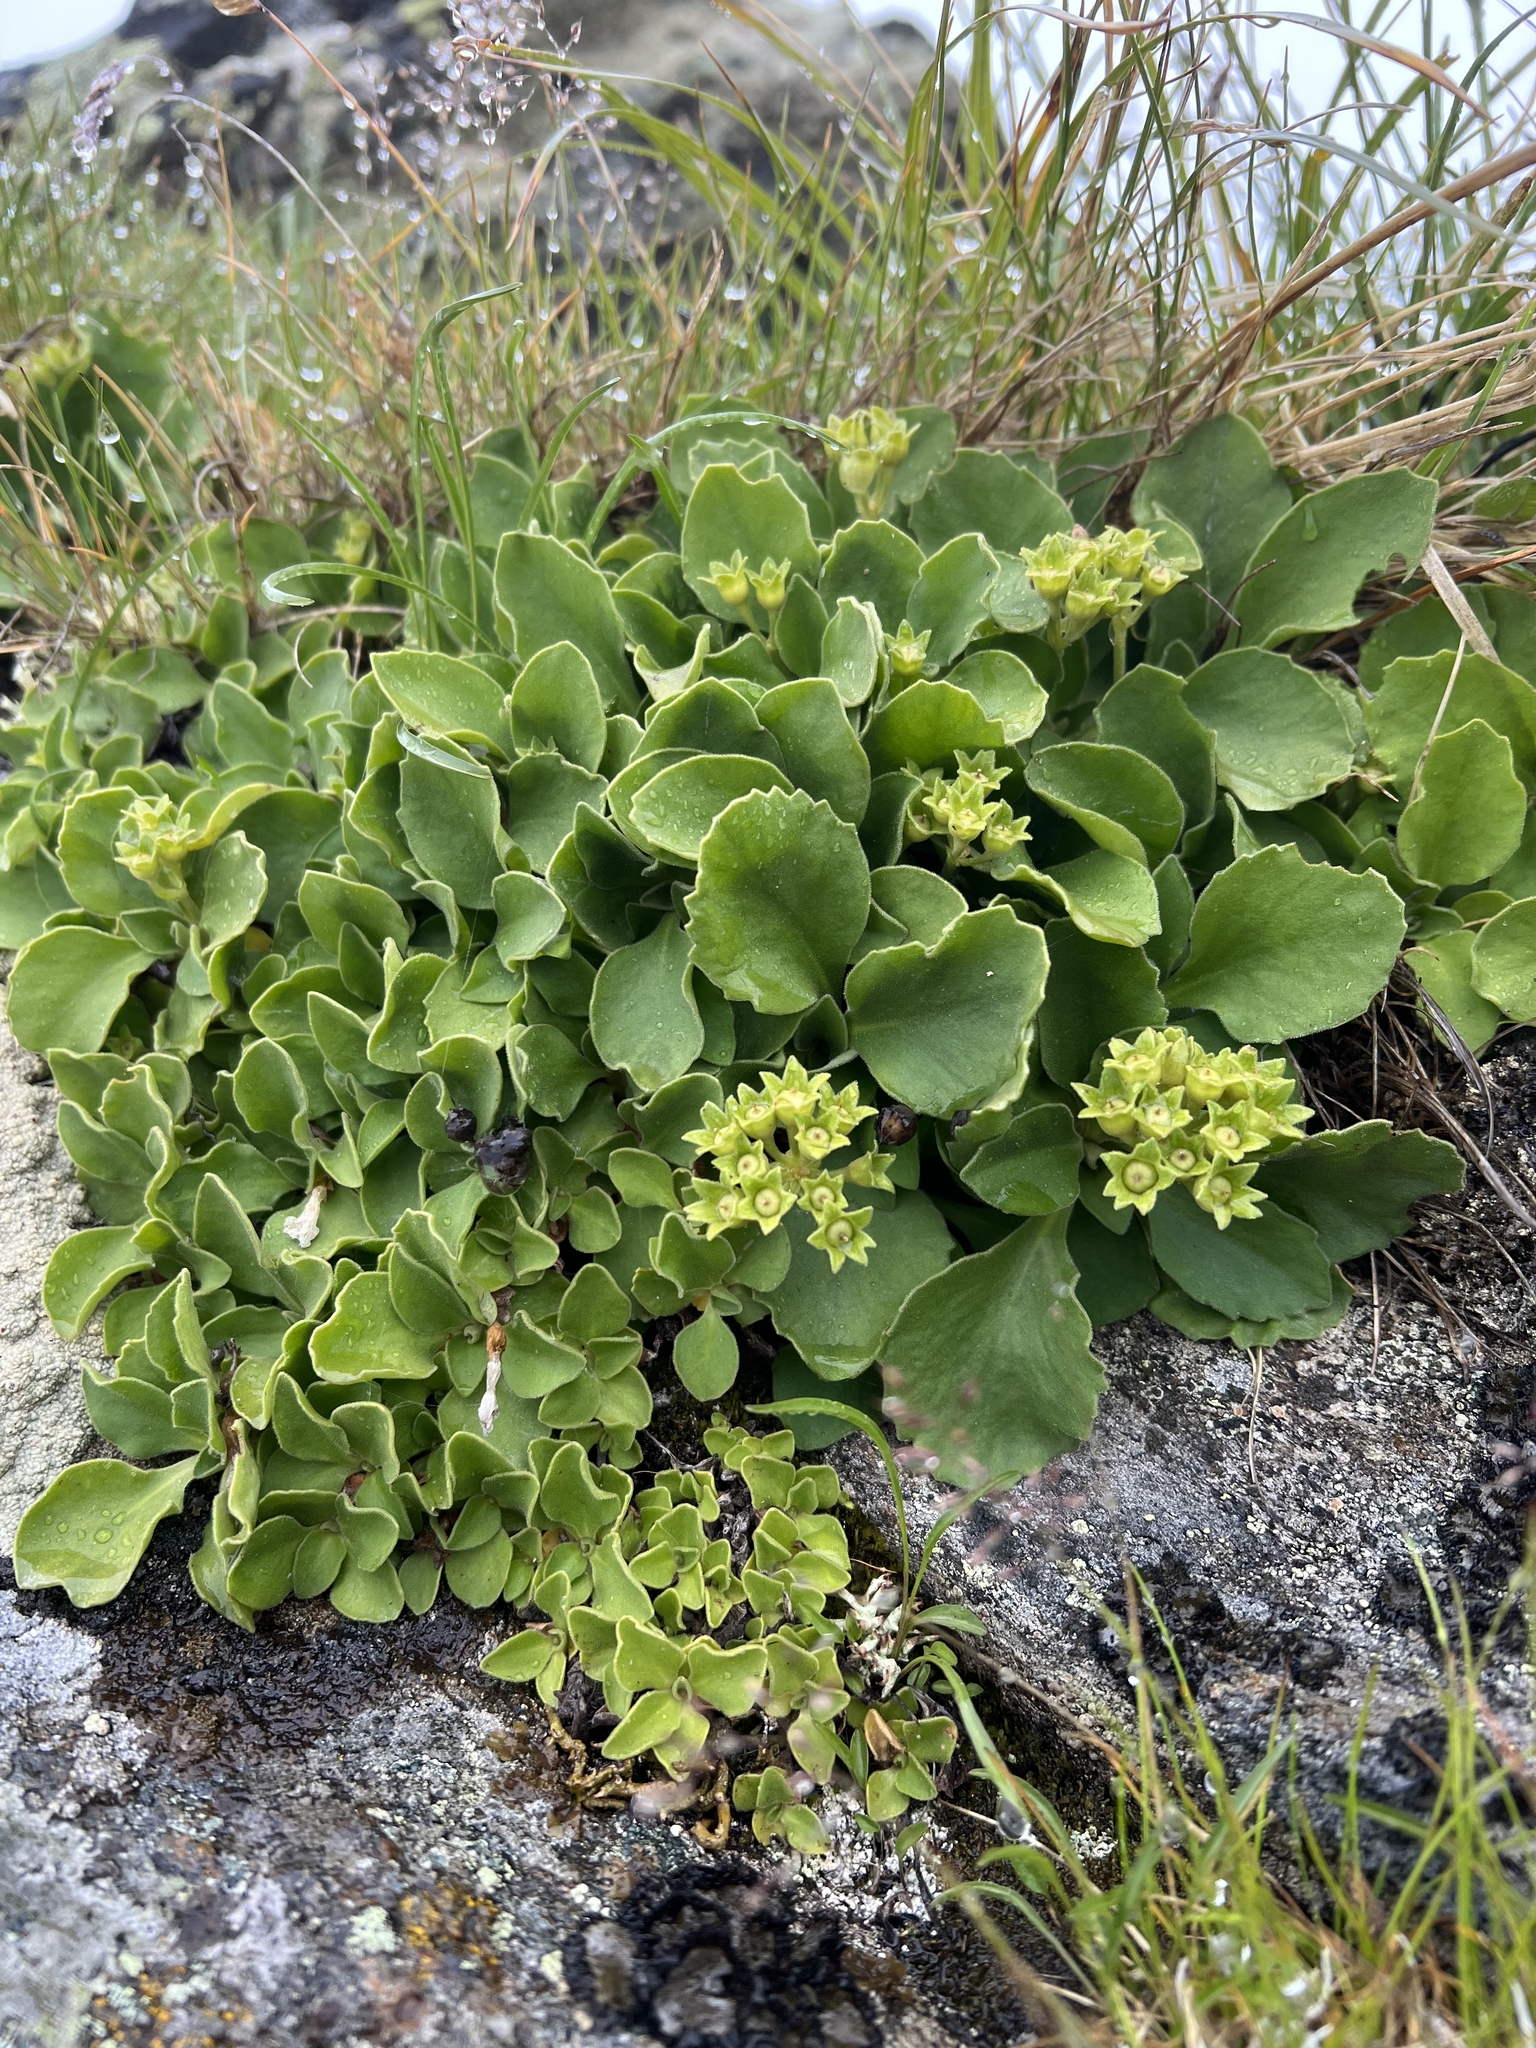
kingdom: Plantae
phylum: Tracheophyta
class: Magnoliopsida
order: Ericales
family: Primulaceae
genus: Primula
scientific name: Primula hirsuta
